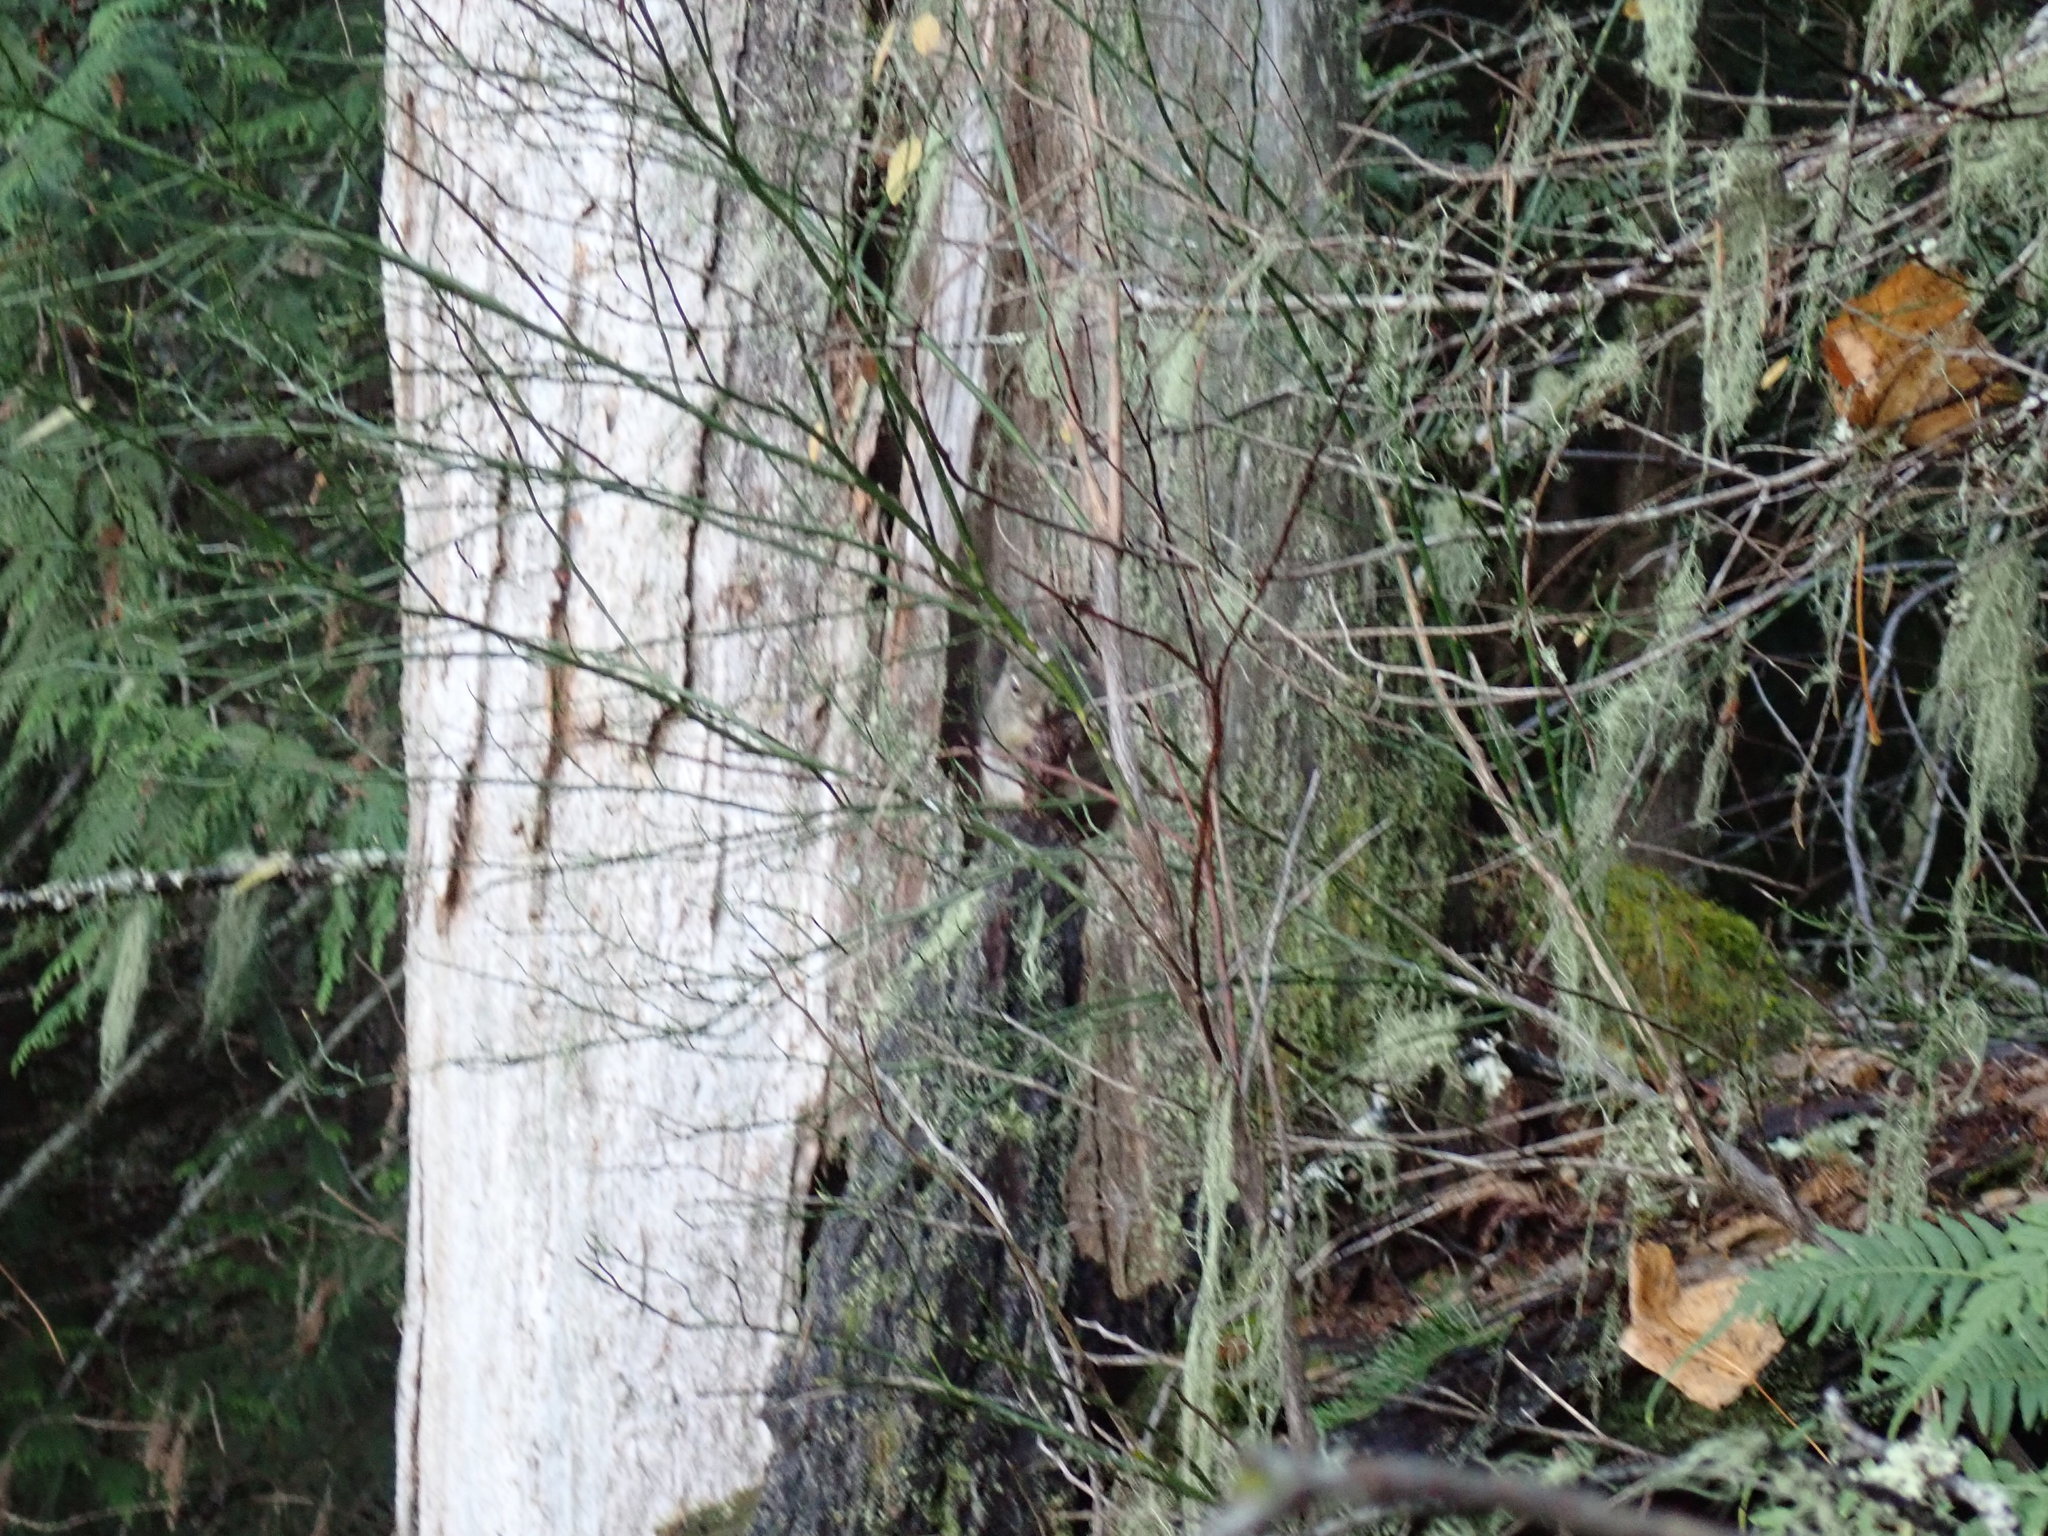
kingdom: Animalia
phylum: Chordata
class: Mammalia
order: Rodentia
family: Sciuridae
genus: Tamiasciurus
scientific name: Tamiasciurus hudsonicus
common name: Red squirrel
